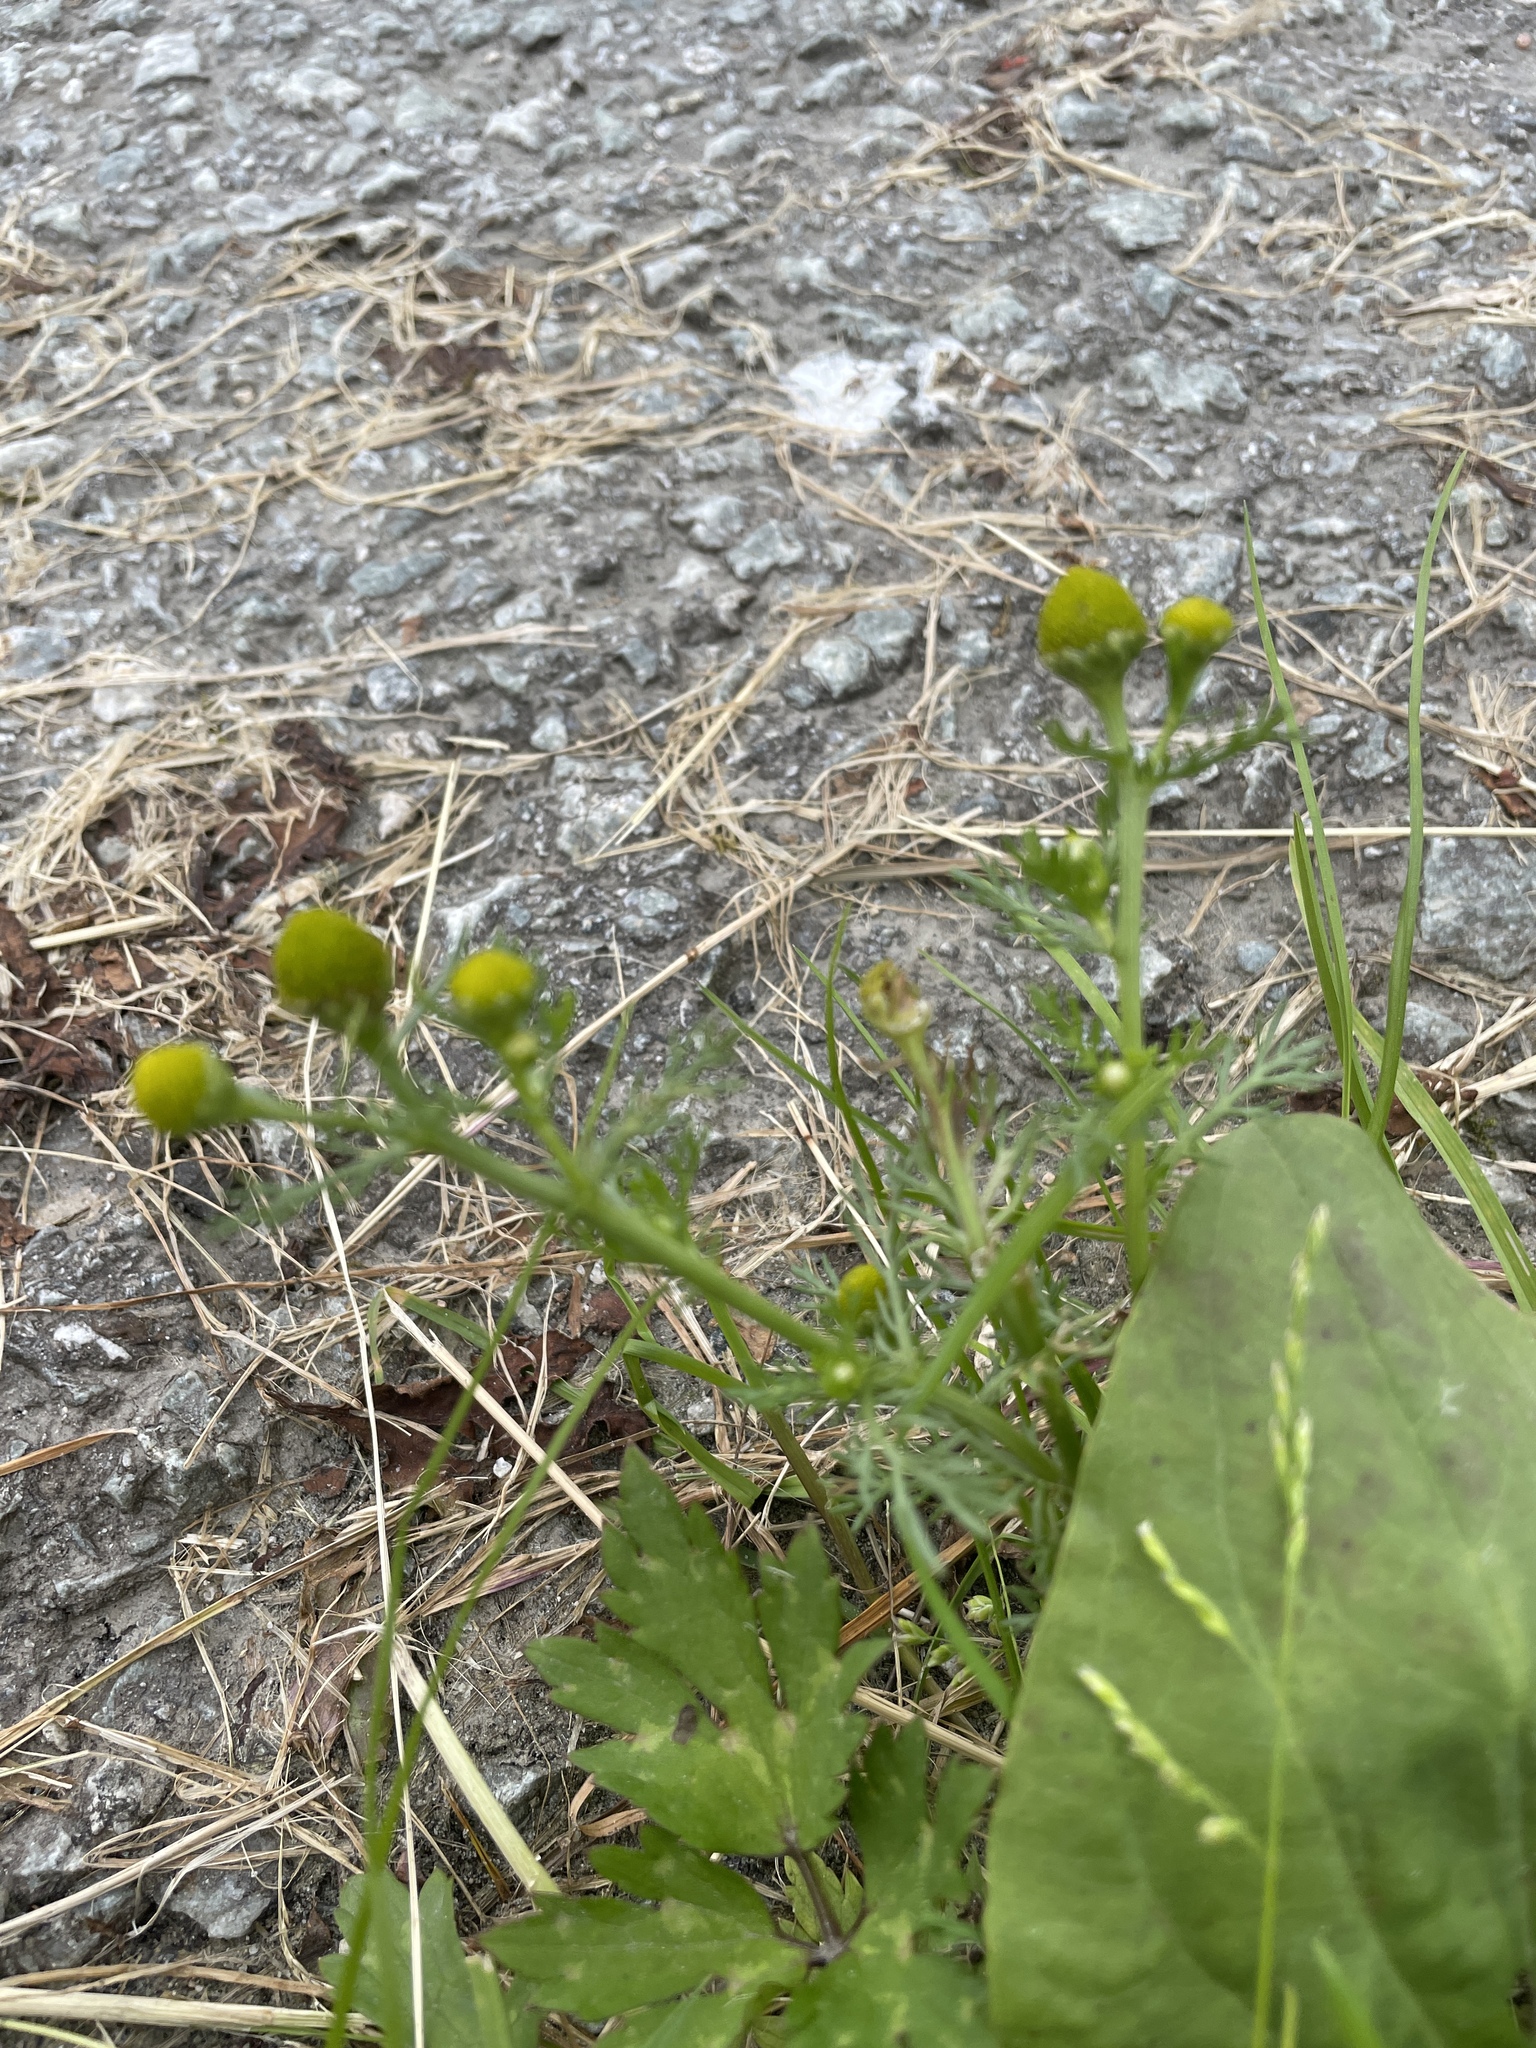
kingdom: Plantae
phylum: Tracheophyta
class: Magnoliopsida
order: Asterales
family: Asteraceae
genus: Matricaria
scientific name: Matricaria discoidea
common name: Disc mayweed
